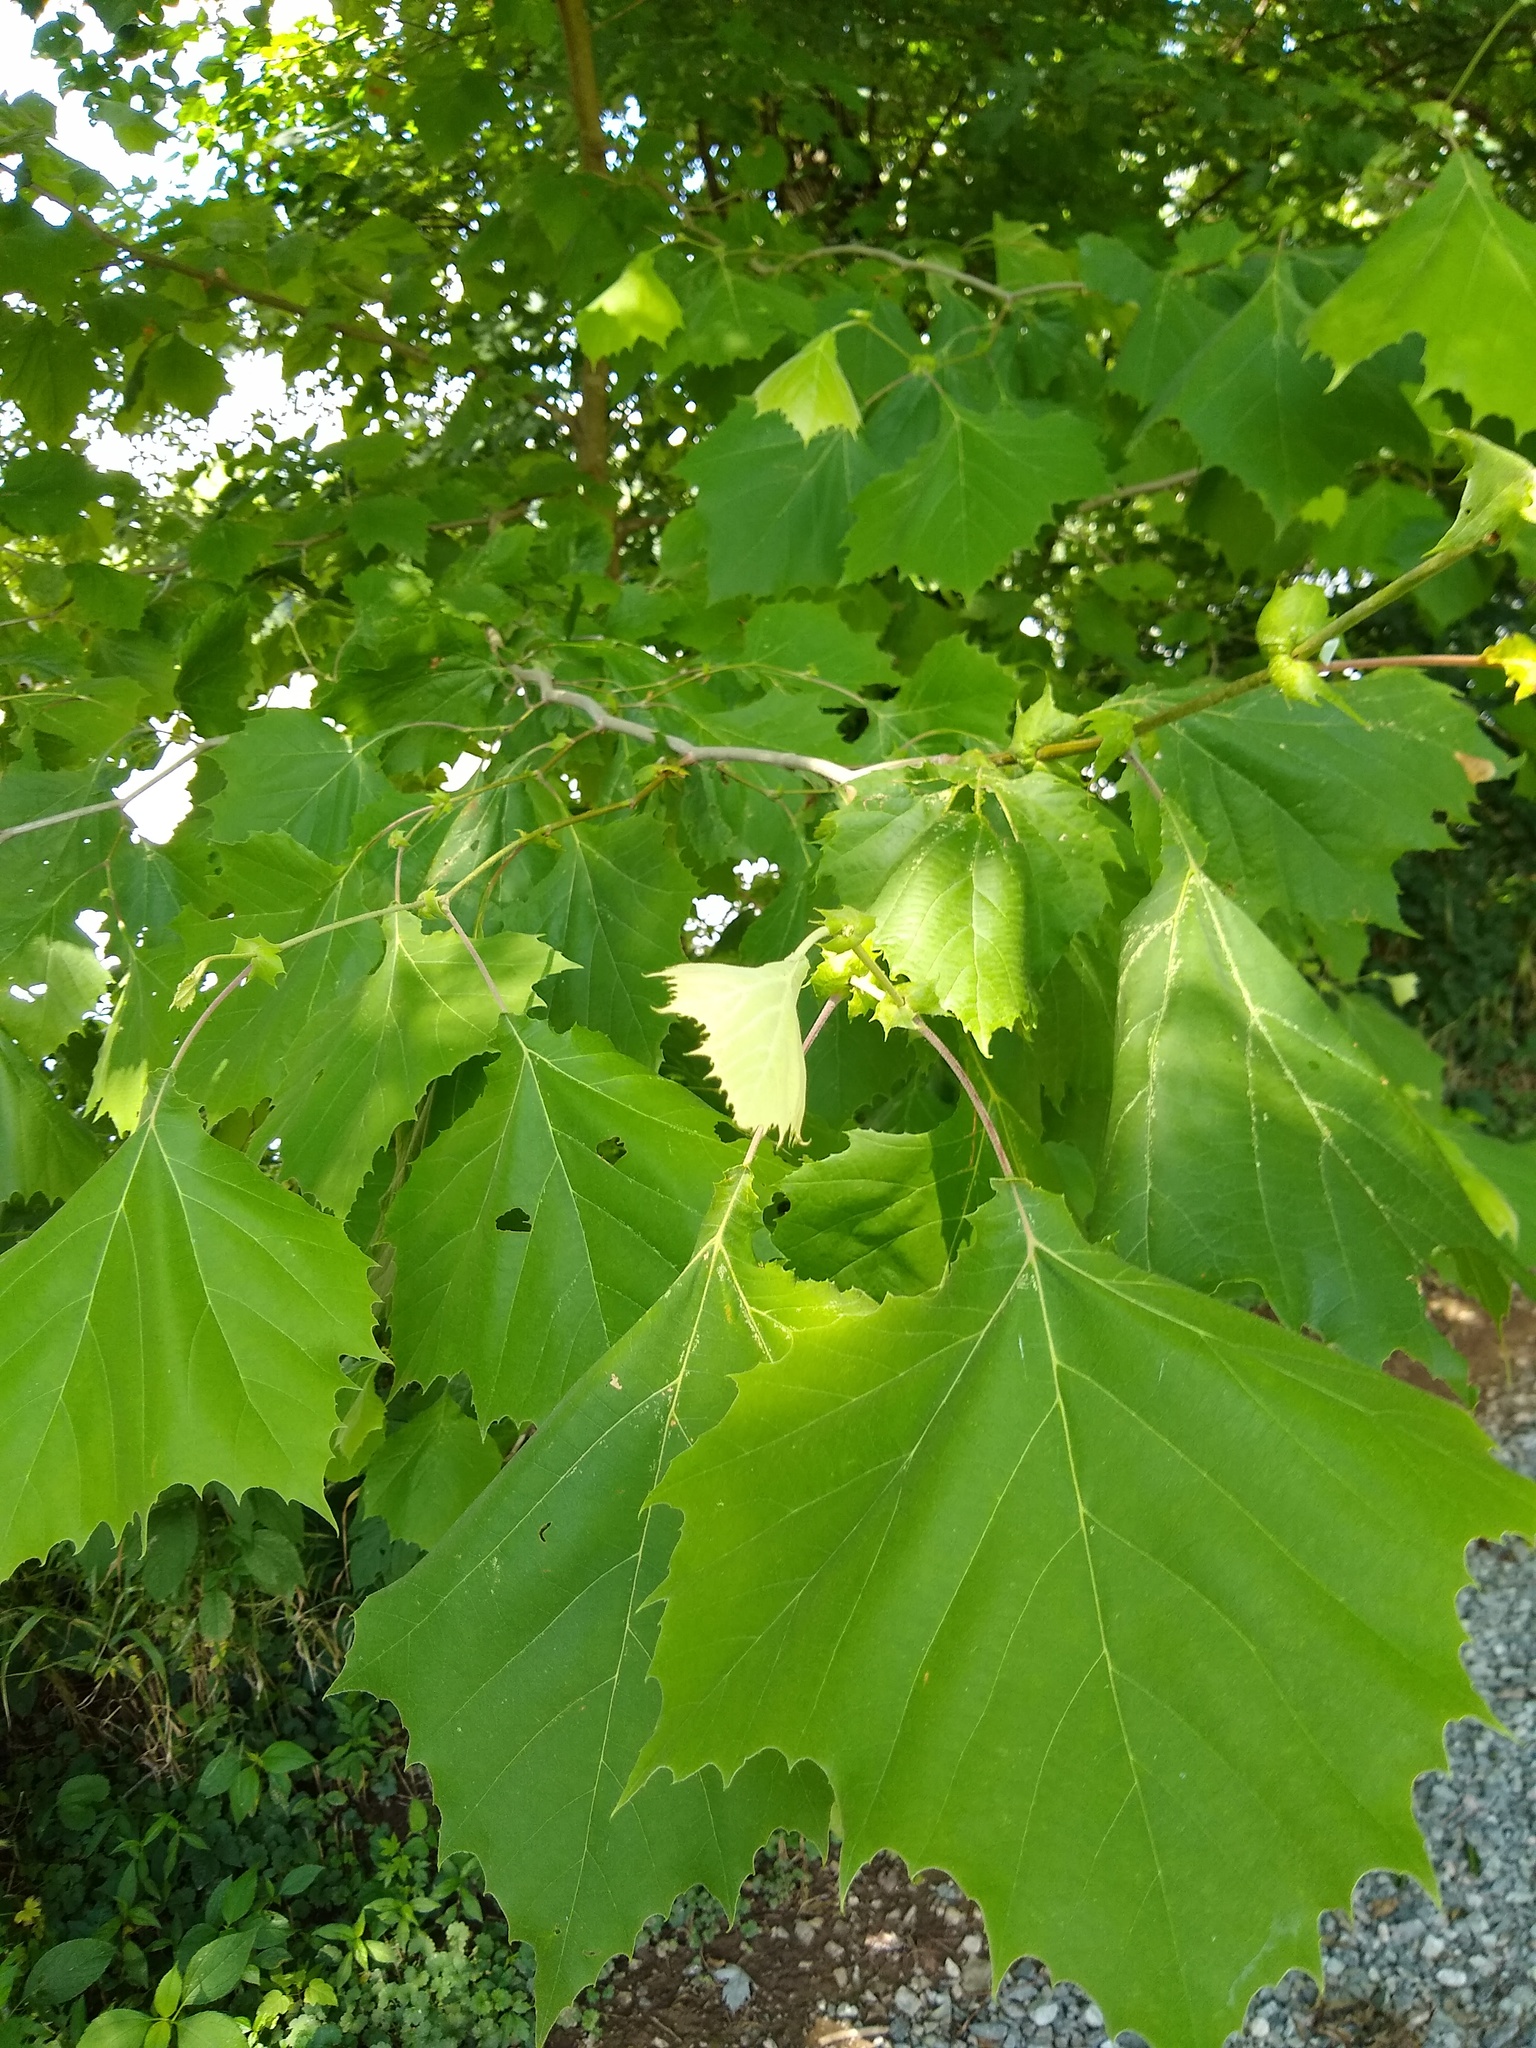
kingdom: Plantae
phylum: Tracheophyta
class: Magnoliopsida
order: Proteales
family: Platanaceae
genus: Platanus
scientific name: Platanus occidentalis
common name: American sycamore
